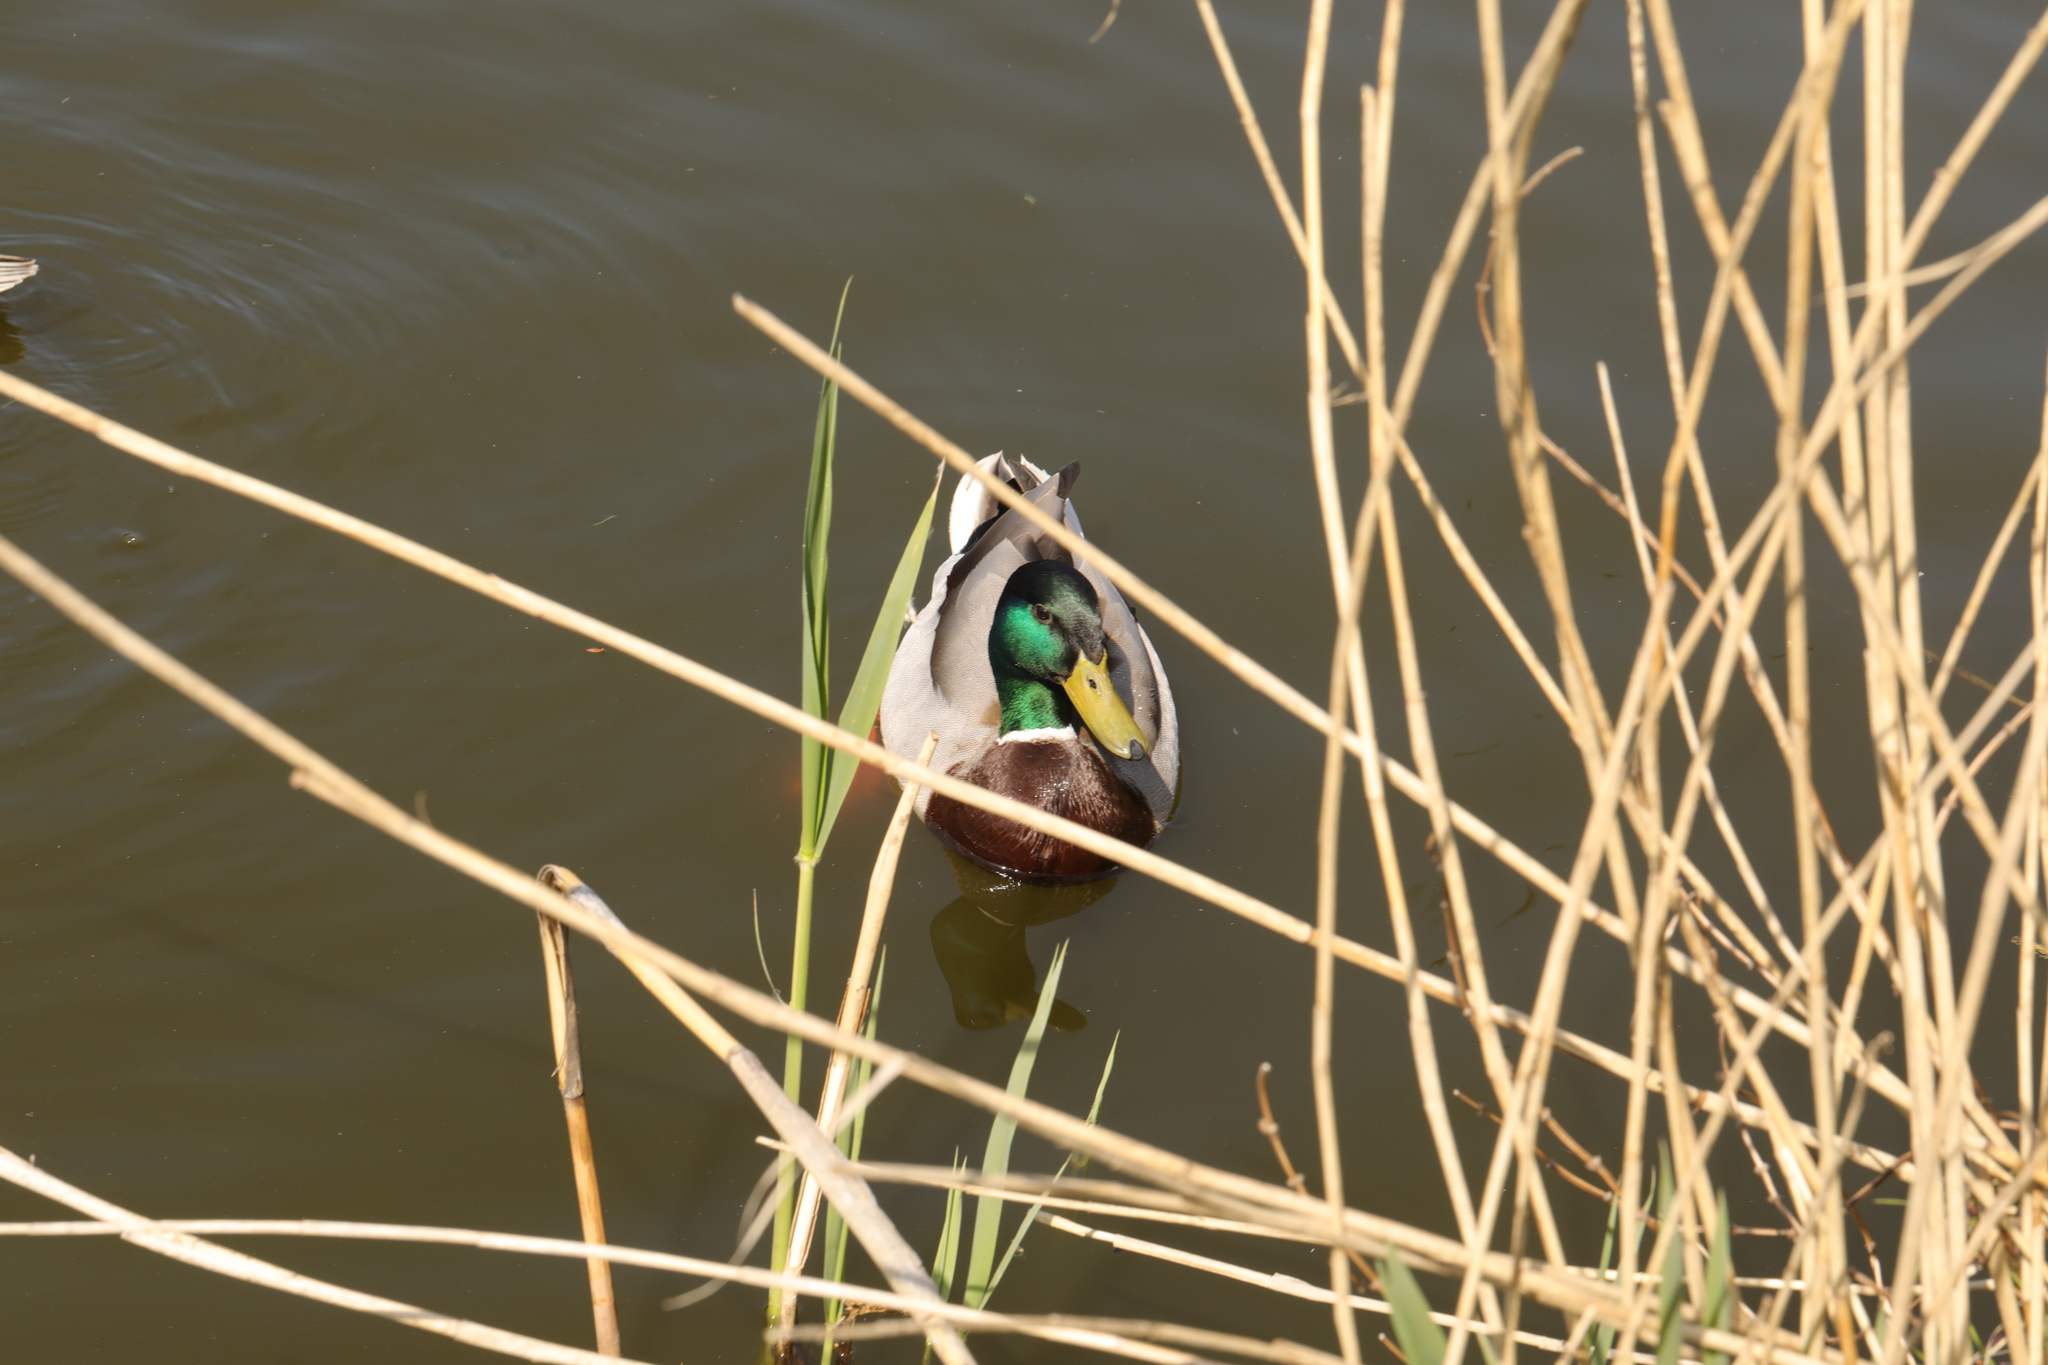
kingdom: Animalia
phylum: Chordata
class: Aves
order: Anseriformes
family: Anatidae
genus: Anas
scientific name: Anas platyrhynchos
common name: Mallard
